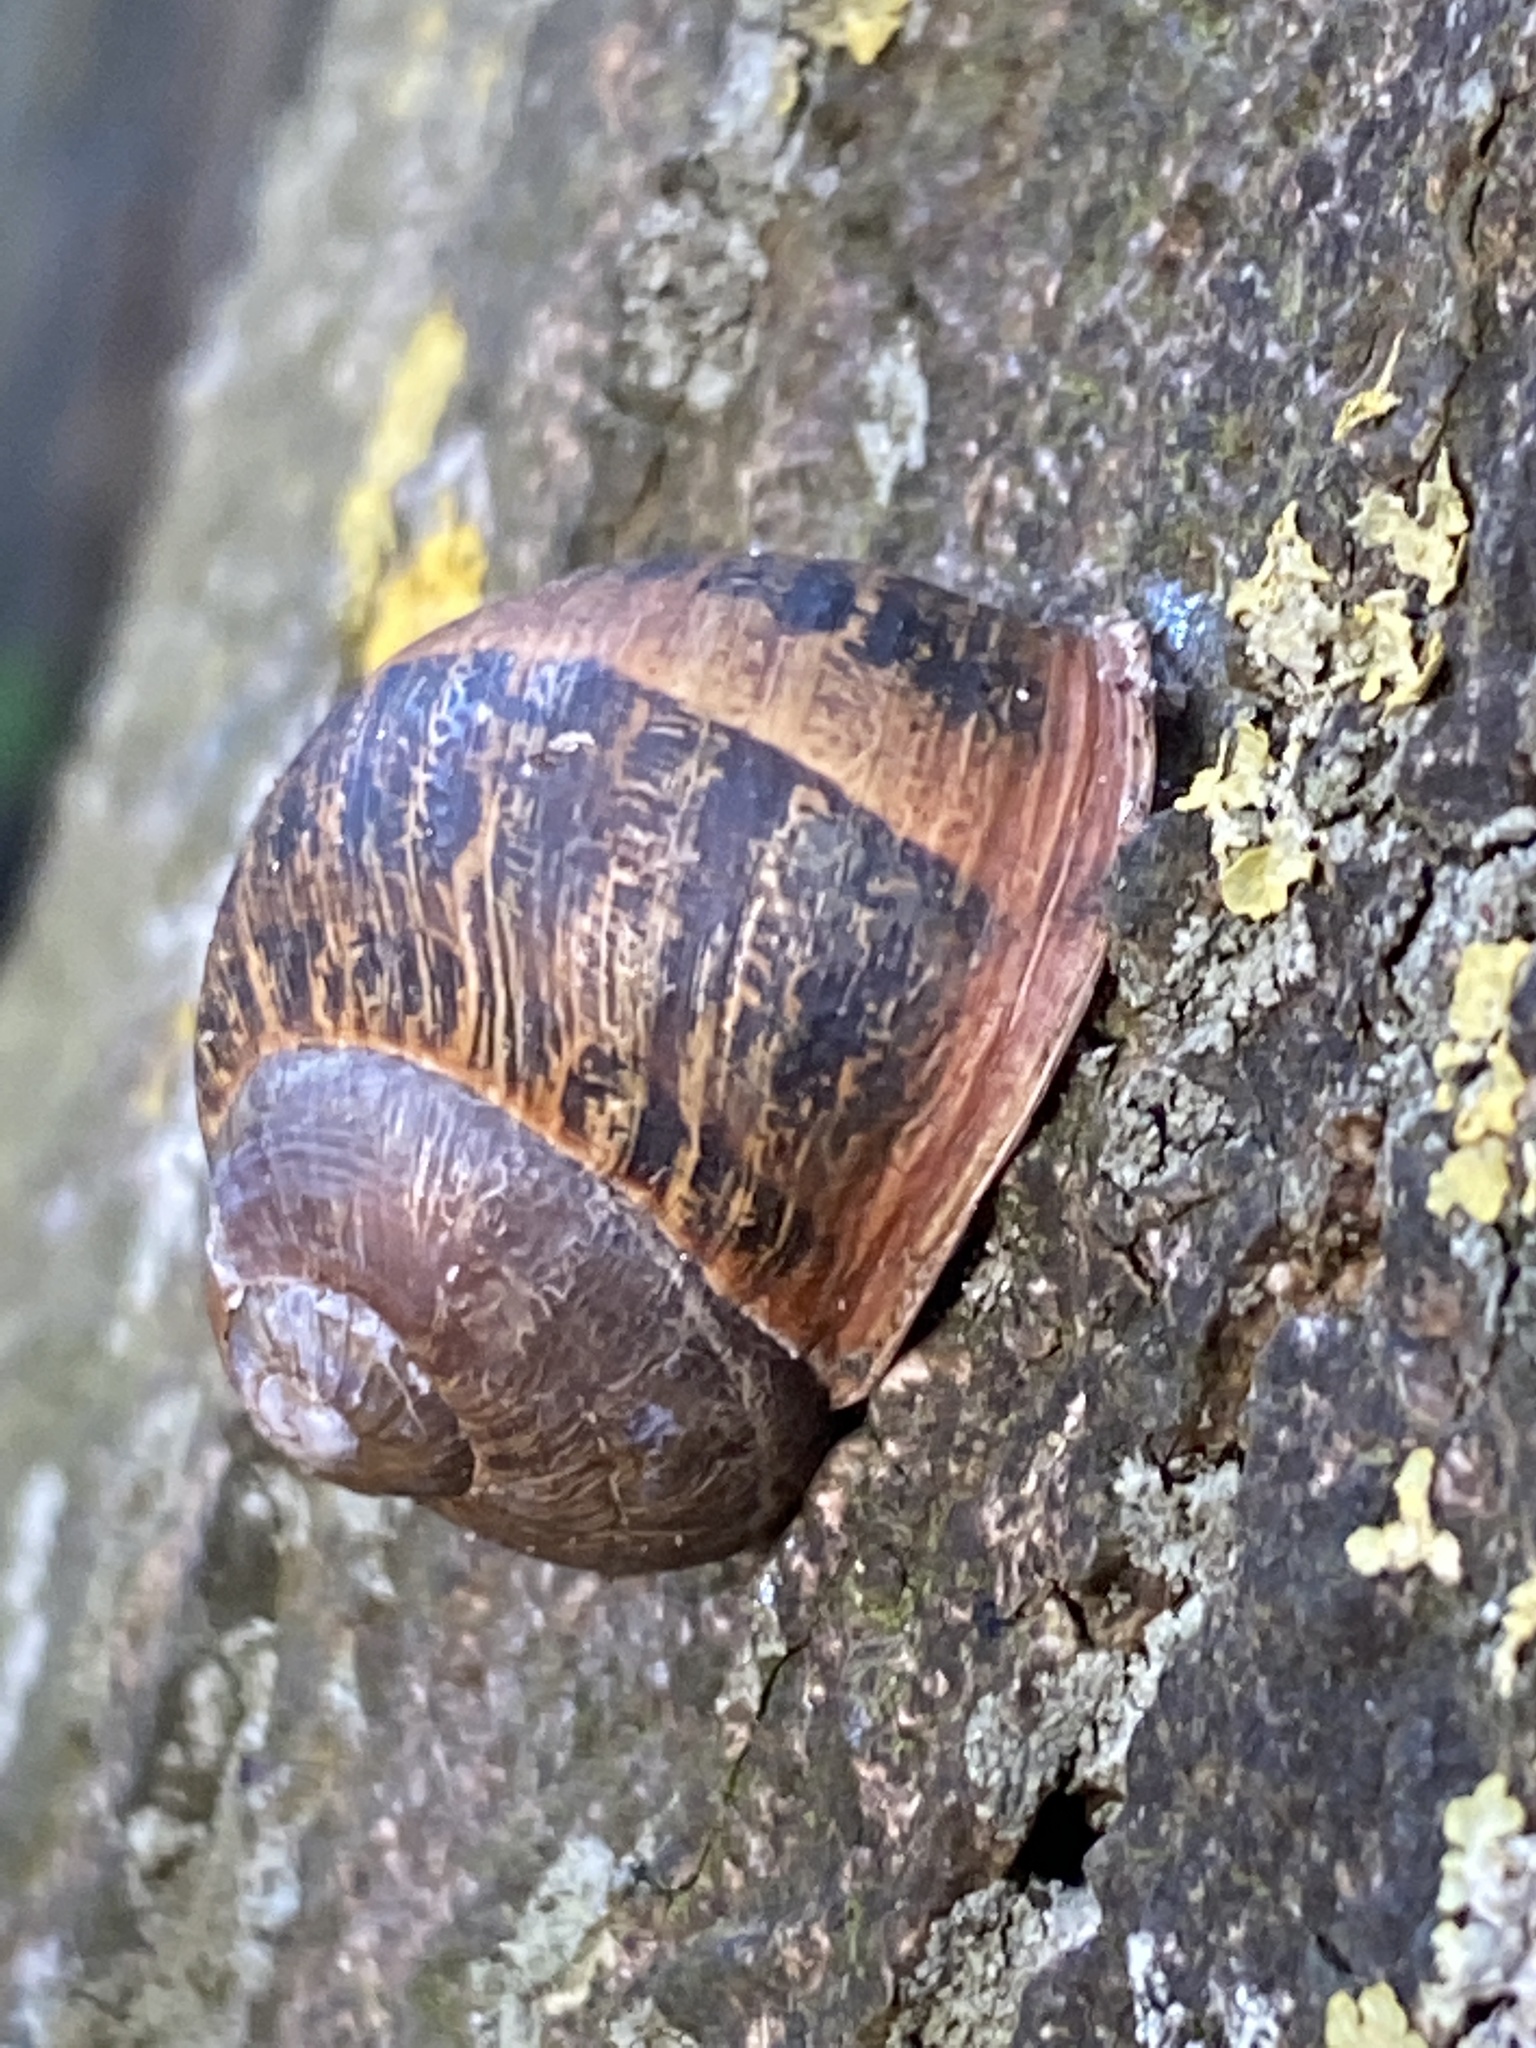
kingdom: Animalia
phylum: Mollusca
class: Gastropoda
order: Stylommatophora
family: Helicidae
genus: Cornu
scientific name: Cornu aspersum
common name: Brown garden snail
